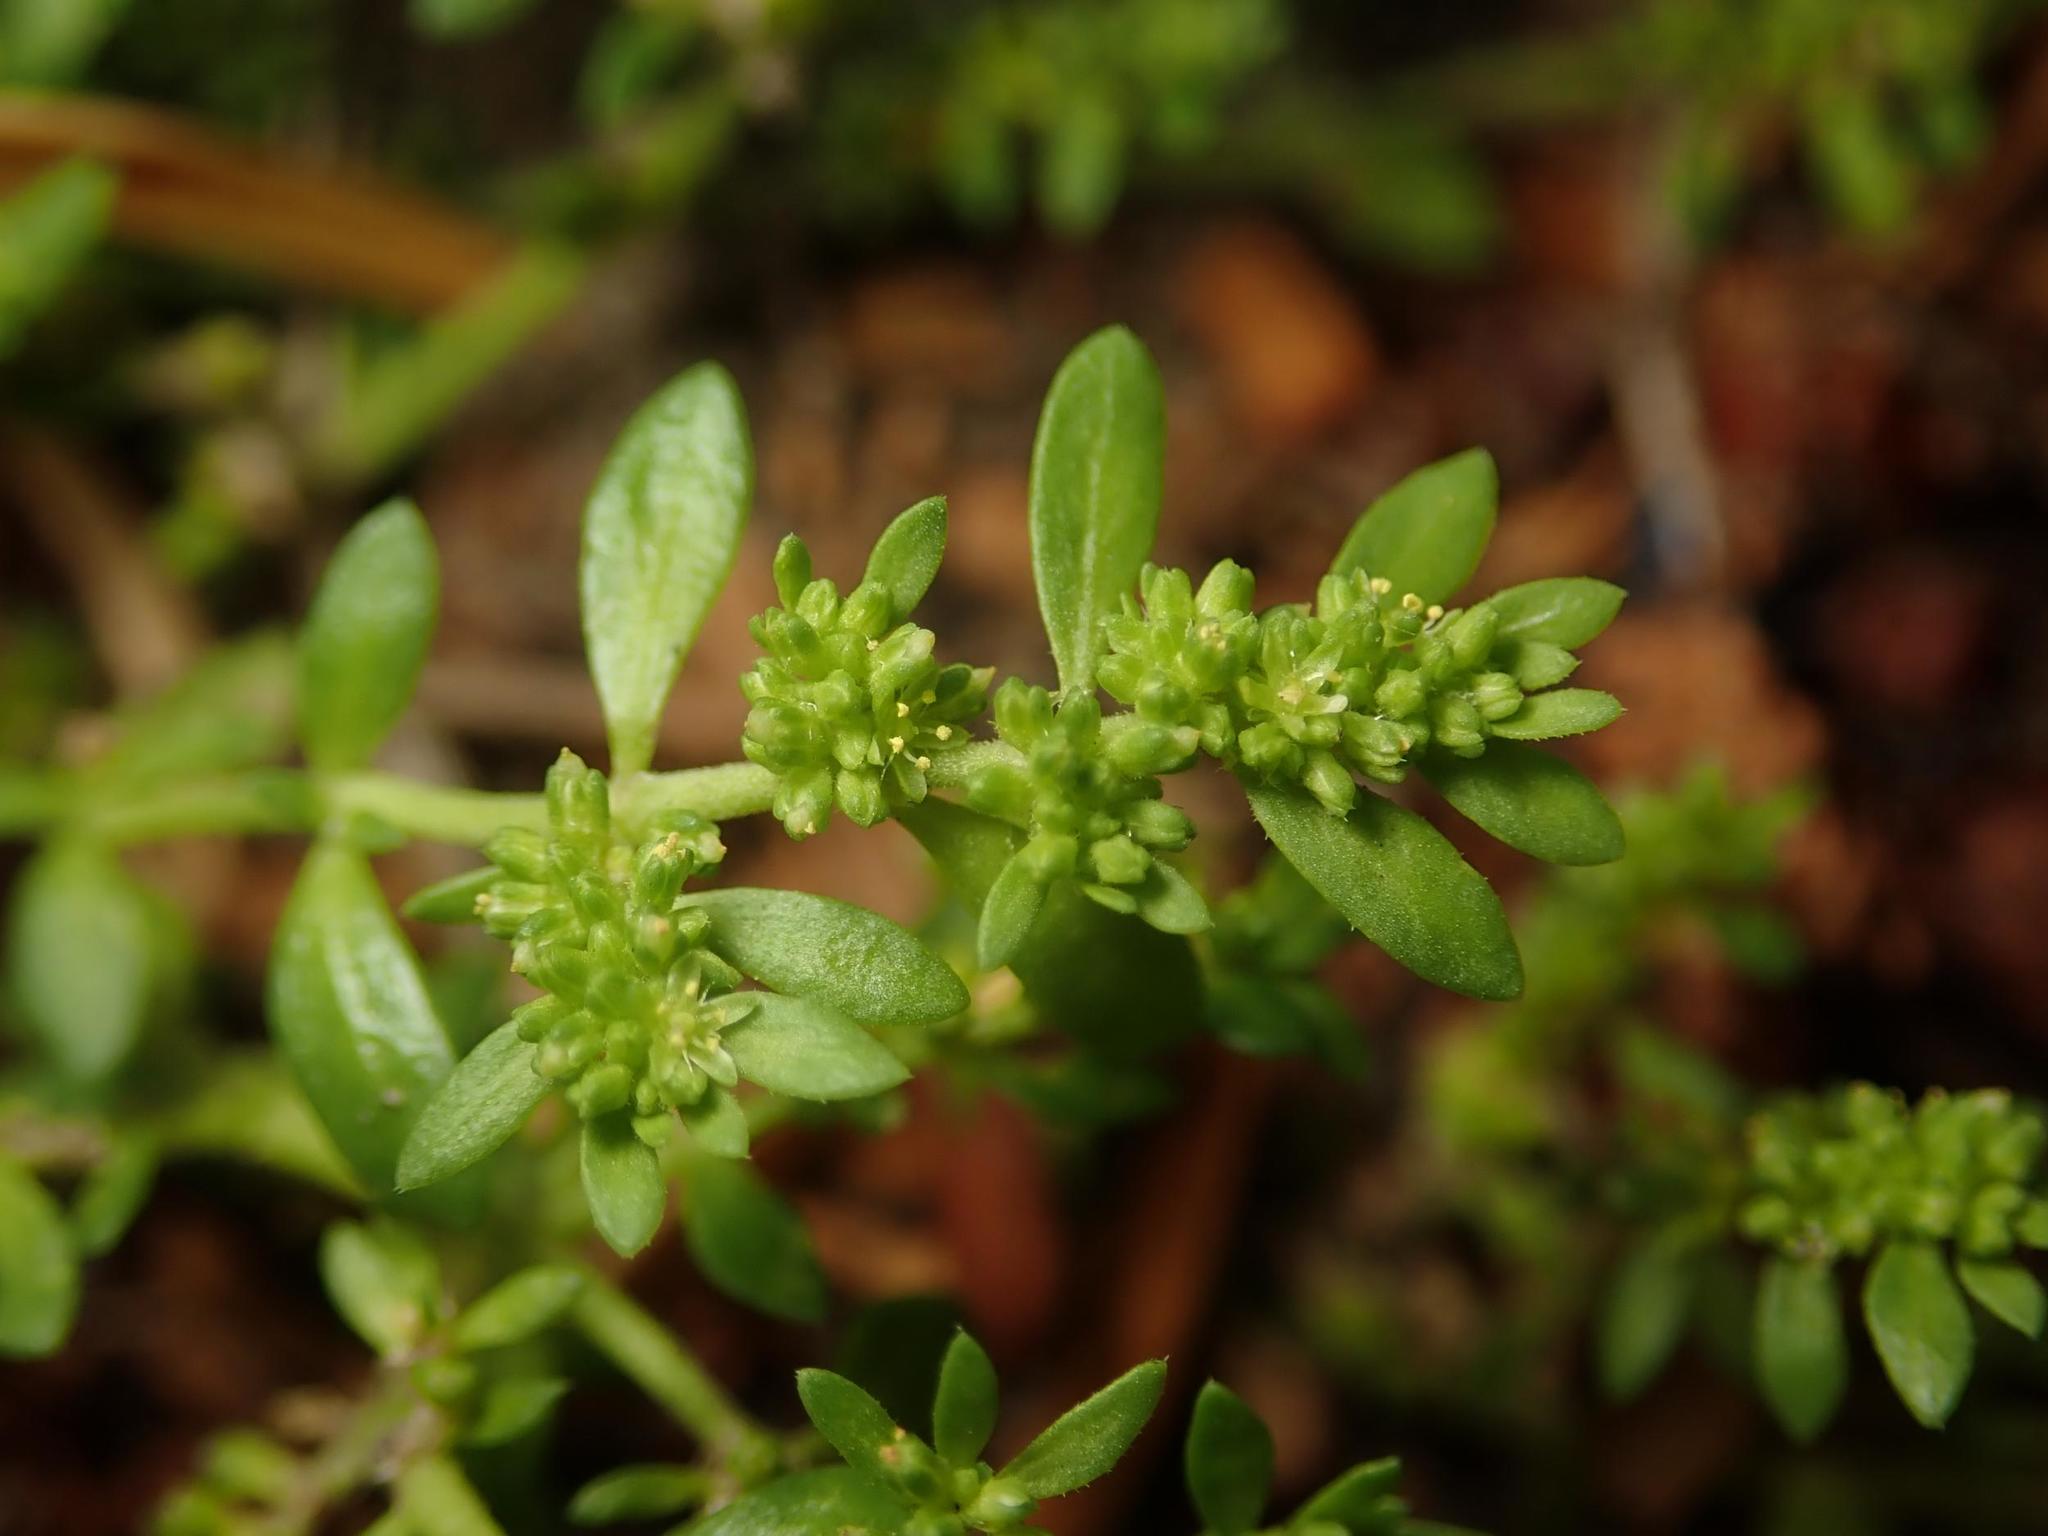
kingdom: Plantae
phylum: Tracheophyta
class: Magnoliopsida
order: Caryophyllales
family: Caryophyllaceae
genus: Herniaria
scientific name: Herniaria glabra
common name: Smooth rupturewort
